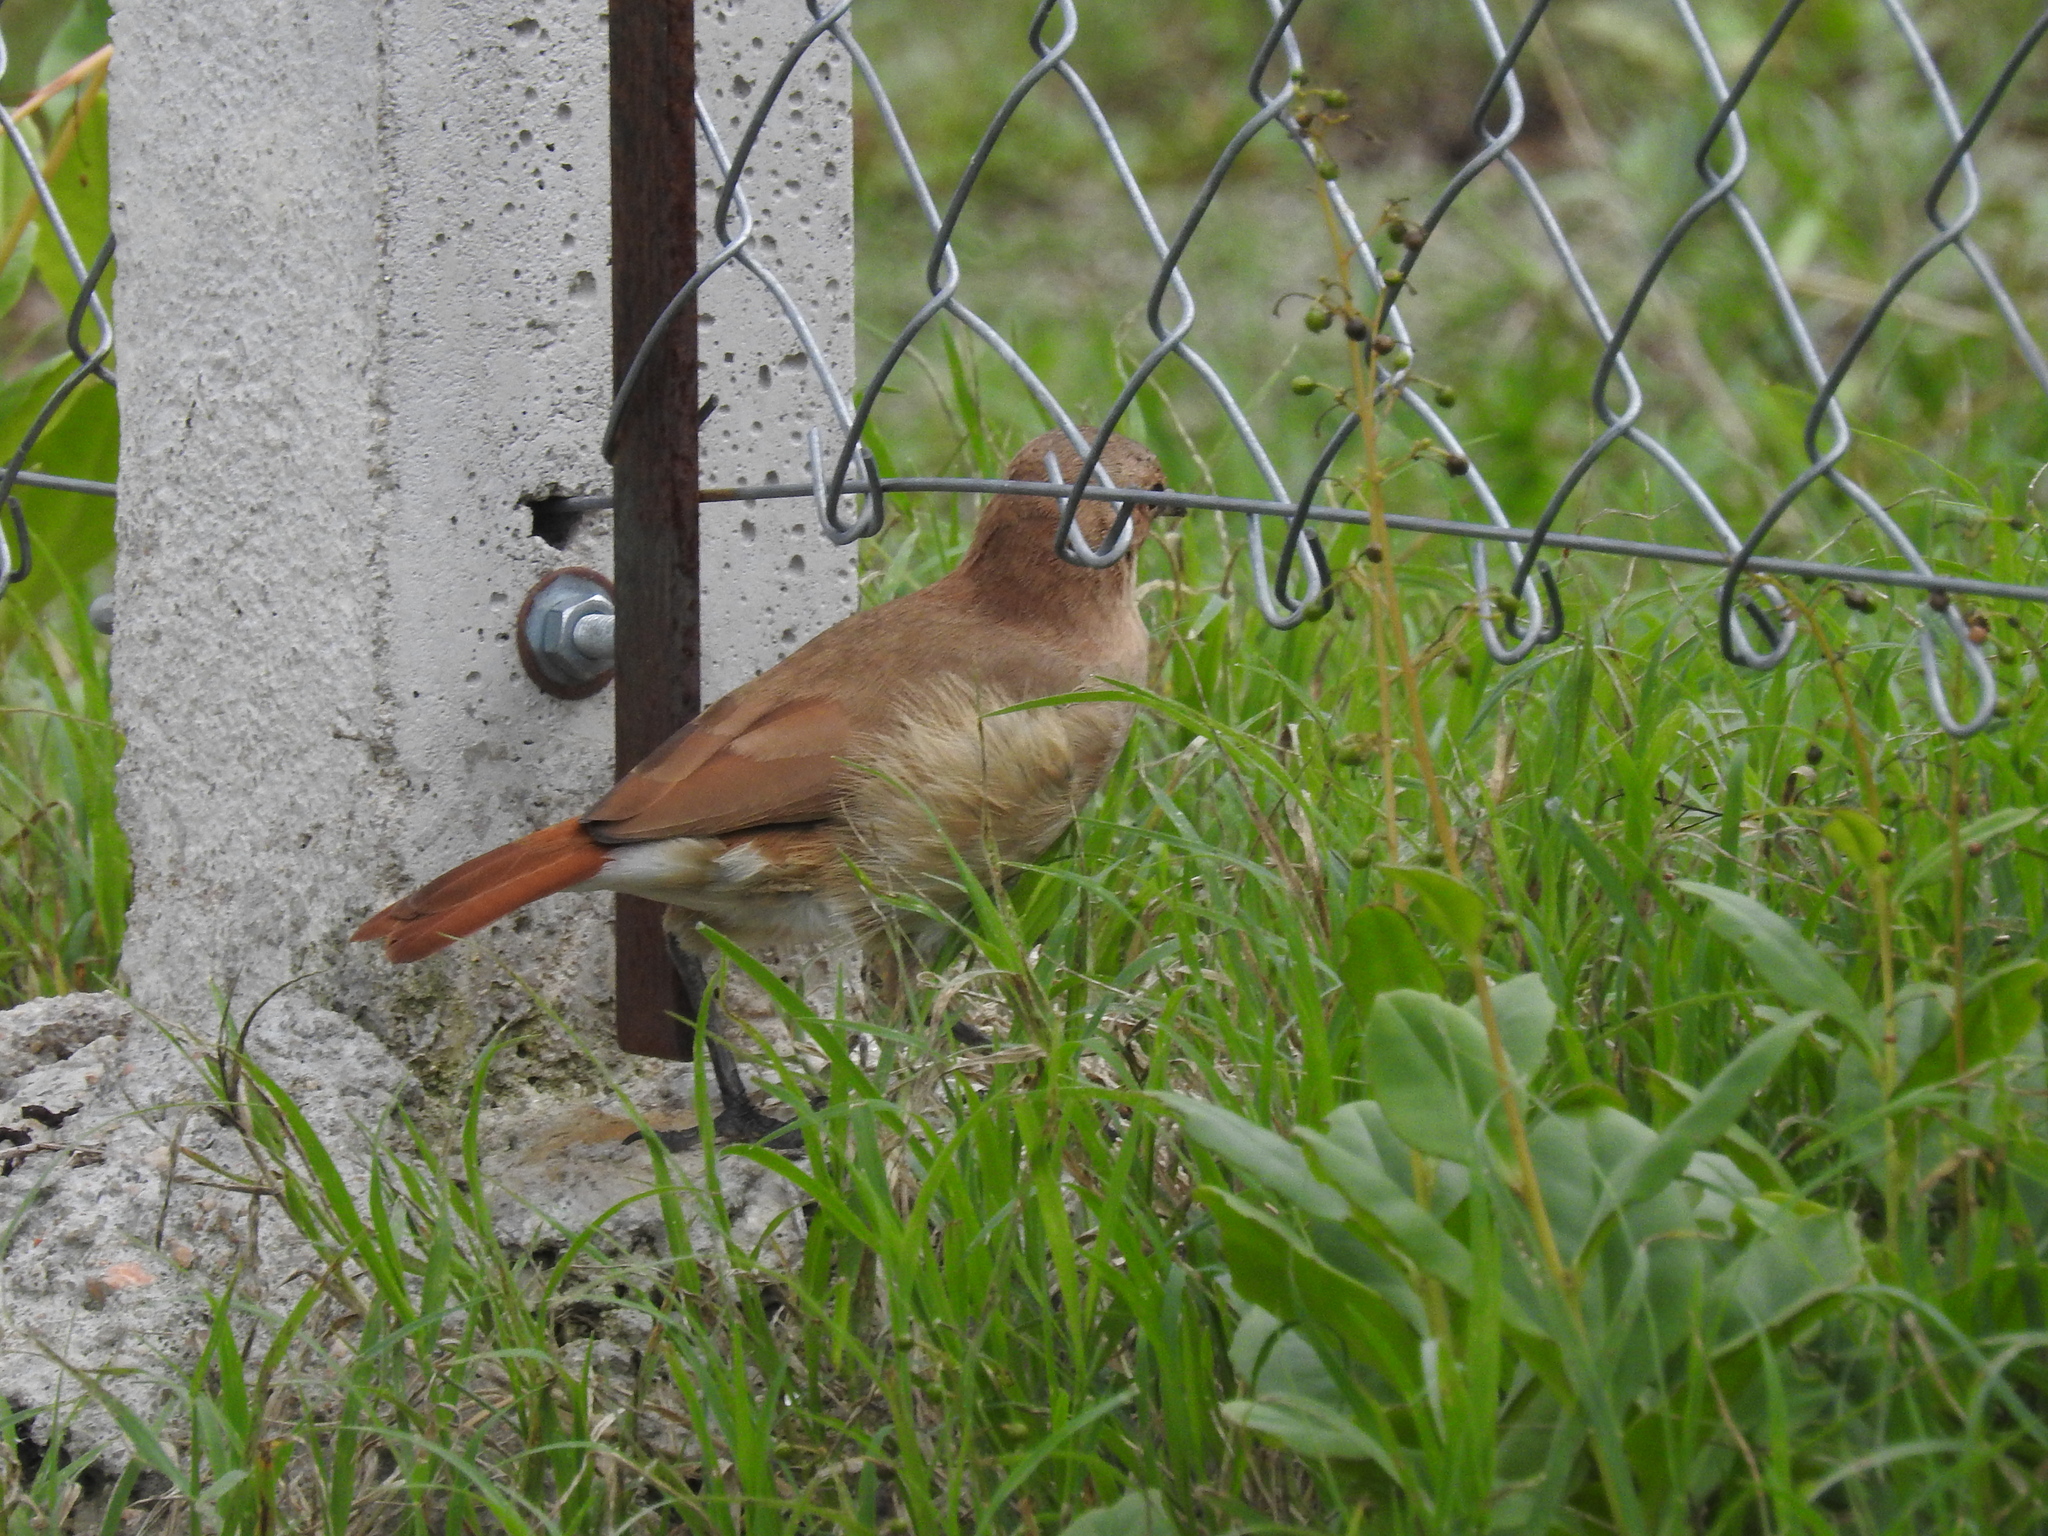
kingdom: Animalia
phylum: Chordata
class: Aves
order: Passeriformes
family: Furnariidae
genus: Furnarius
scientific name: Furnarius rufus
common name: Rufous hornero
